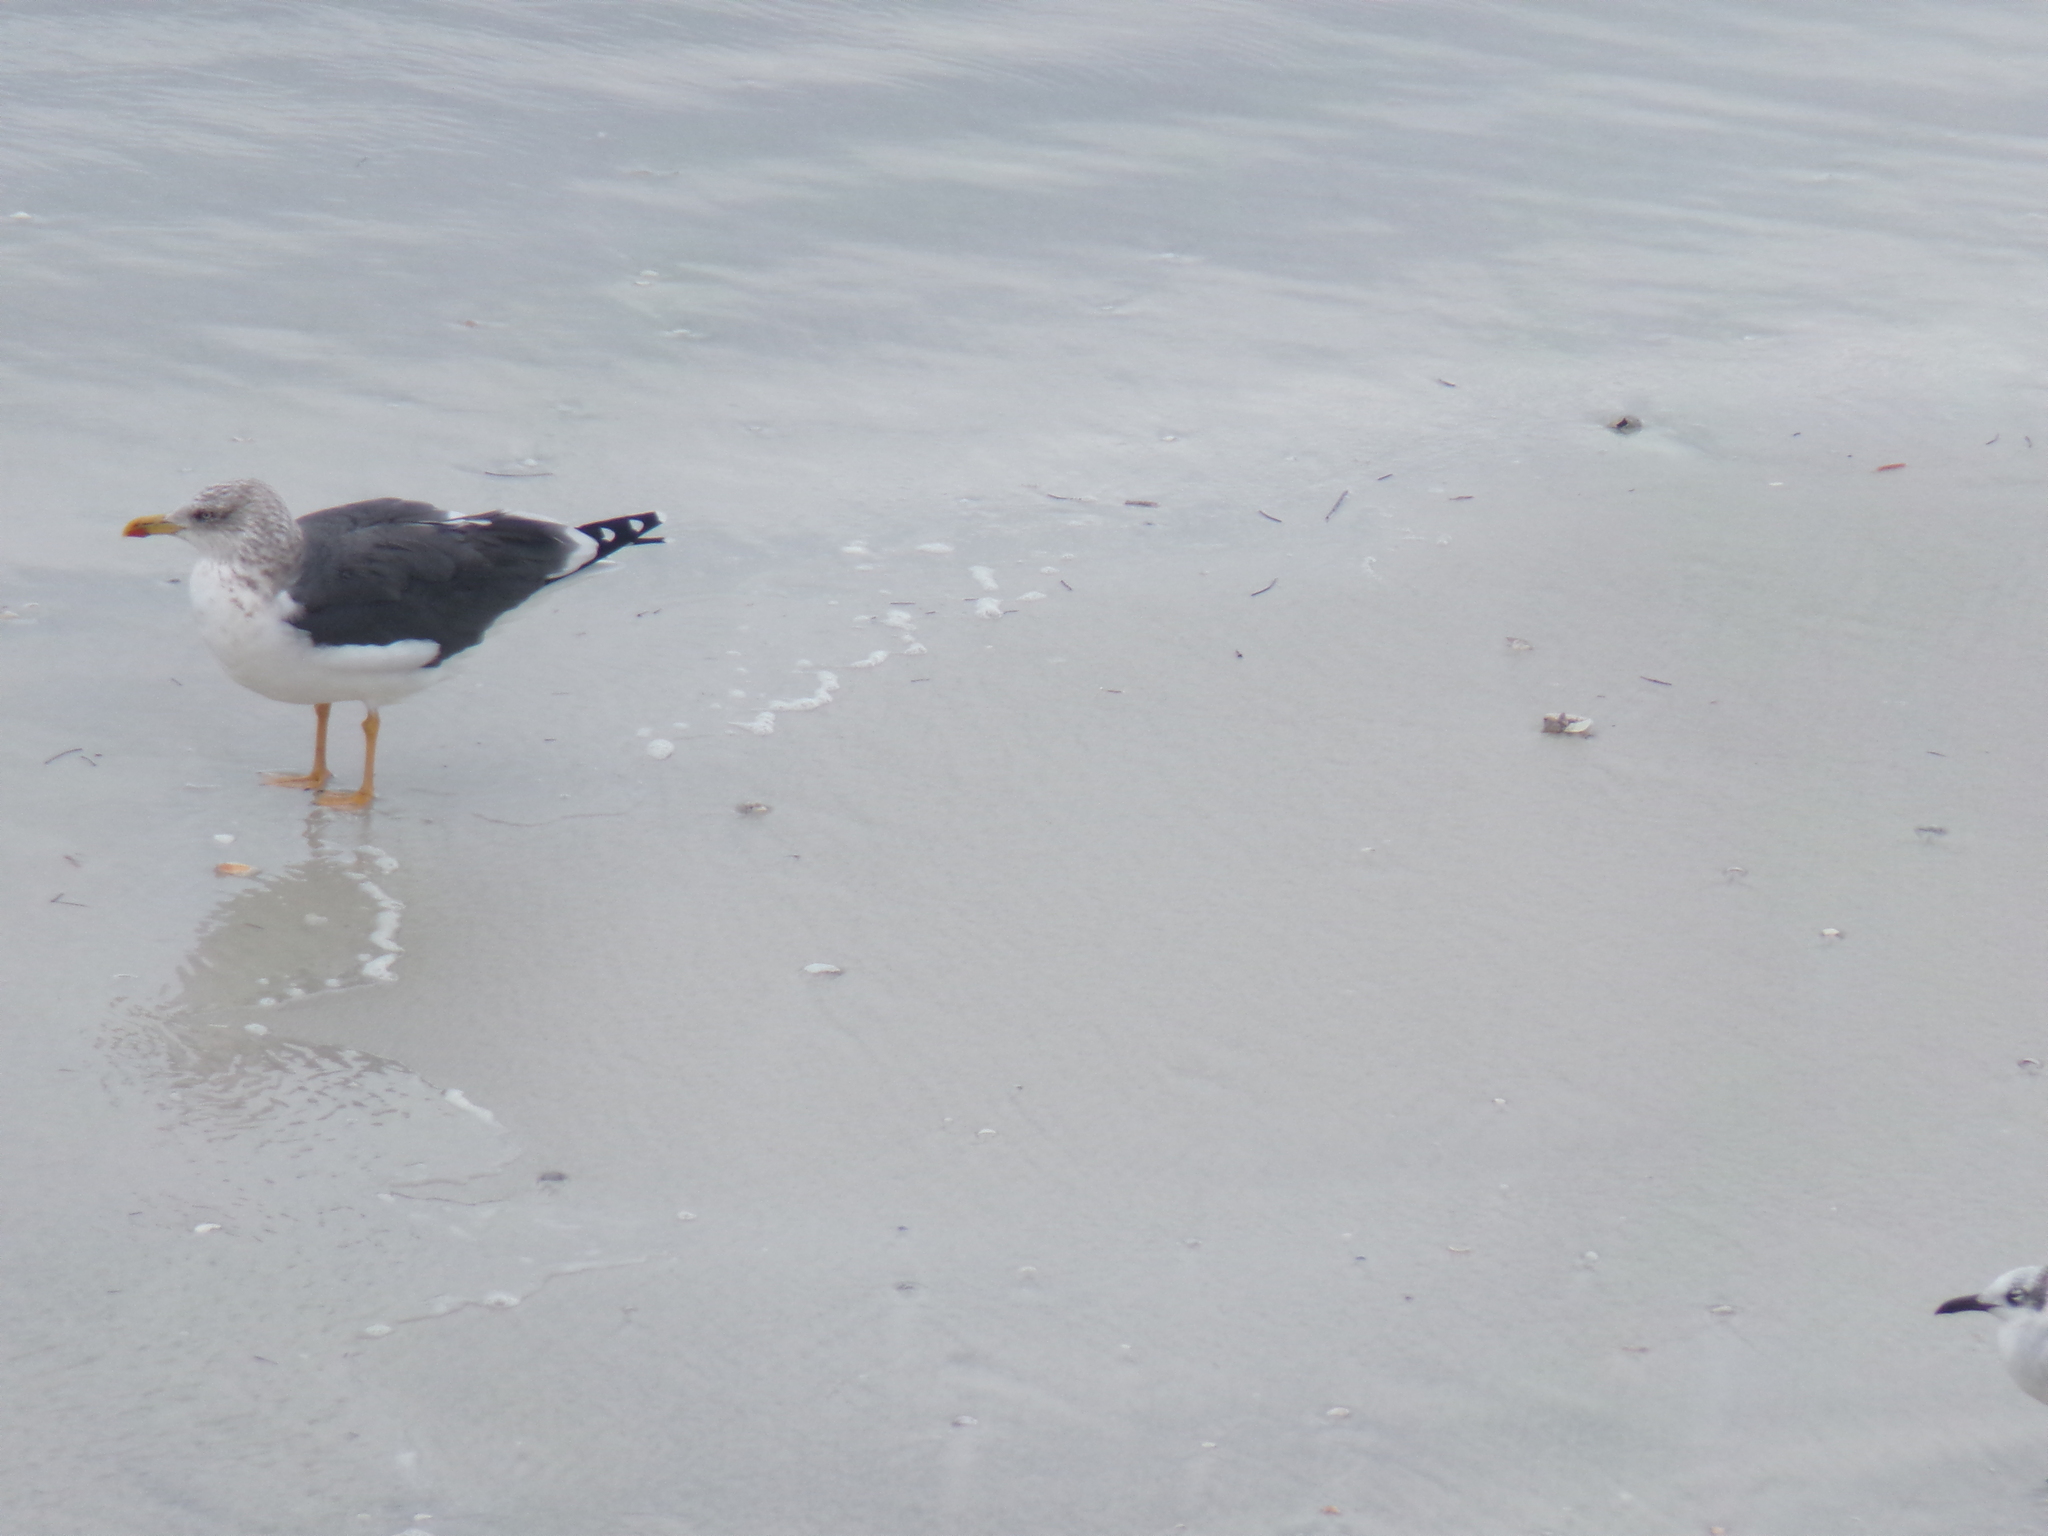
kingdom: Animalia
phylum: Chordata
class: Aves
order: Charadriiformes
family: Laridae
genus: Larus
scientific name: Larus fuscus
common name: Lesser black-backed gull
